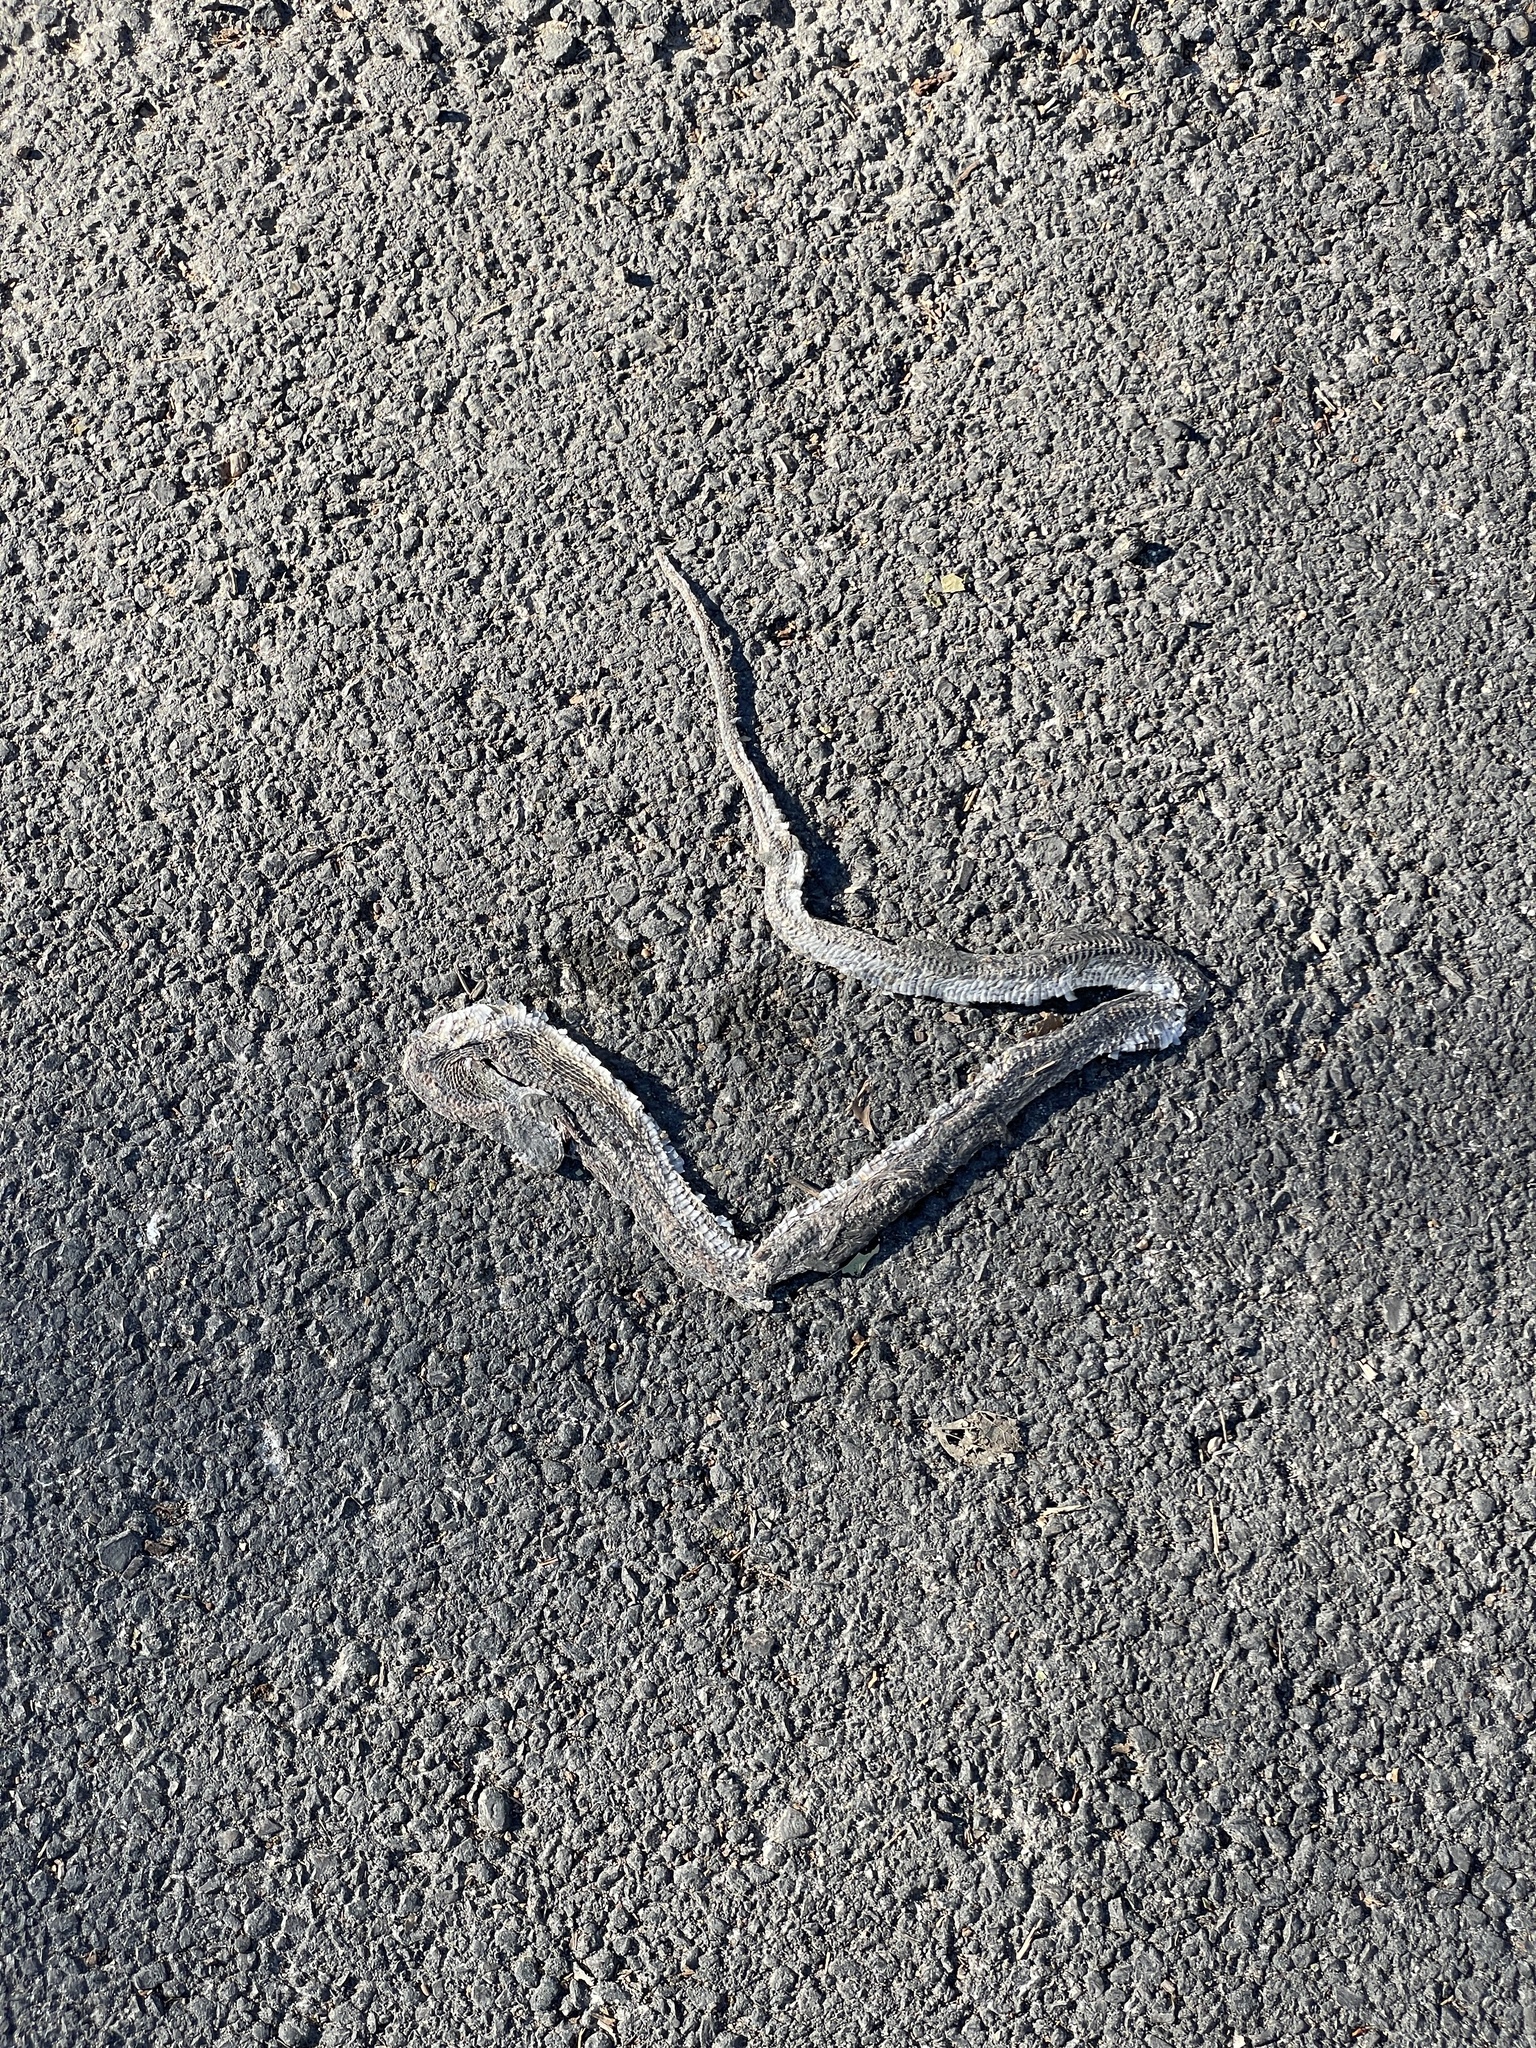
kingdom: Animalia
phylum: Chordata
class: Squamata
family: Colubridae
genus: Pantherophis
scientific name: Pantherophis obsoletus
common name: Black rat snake
